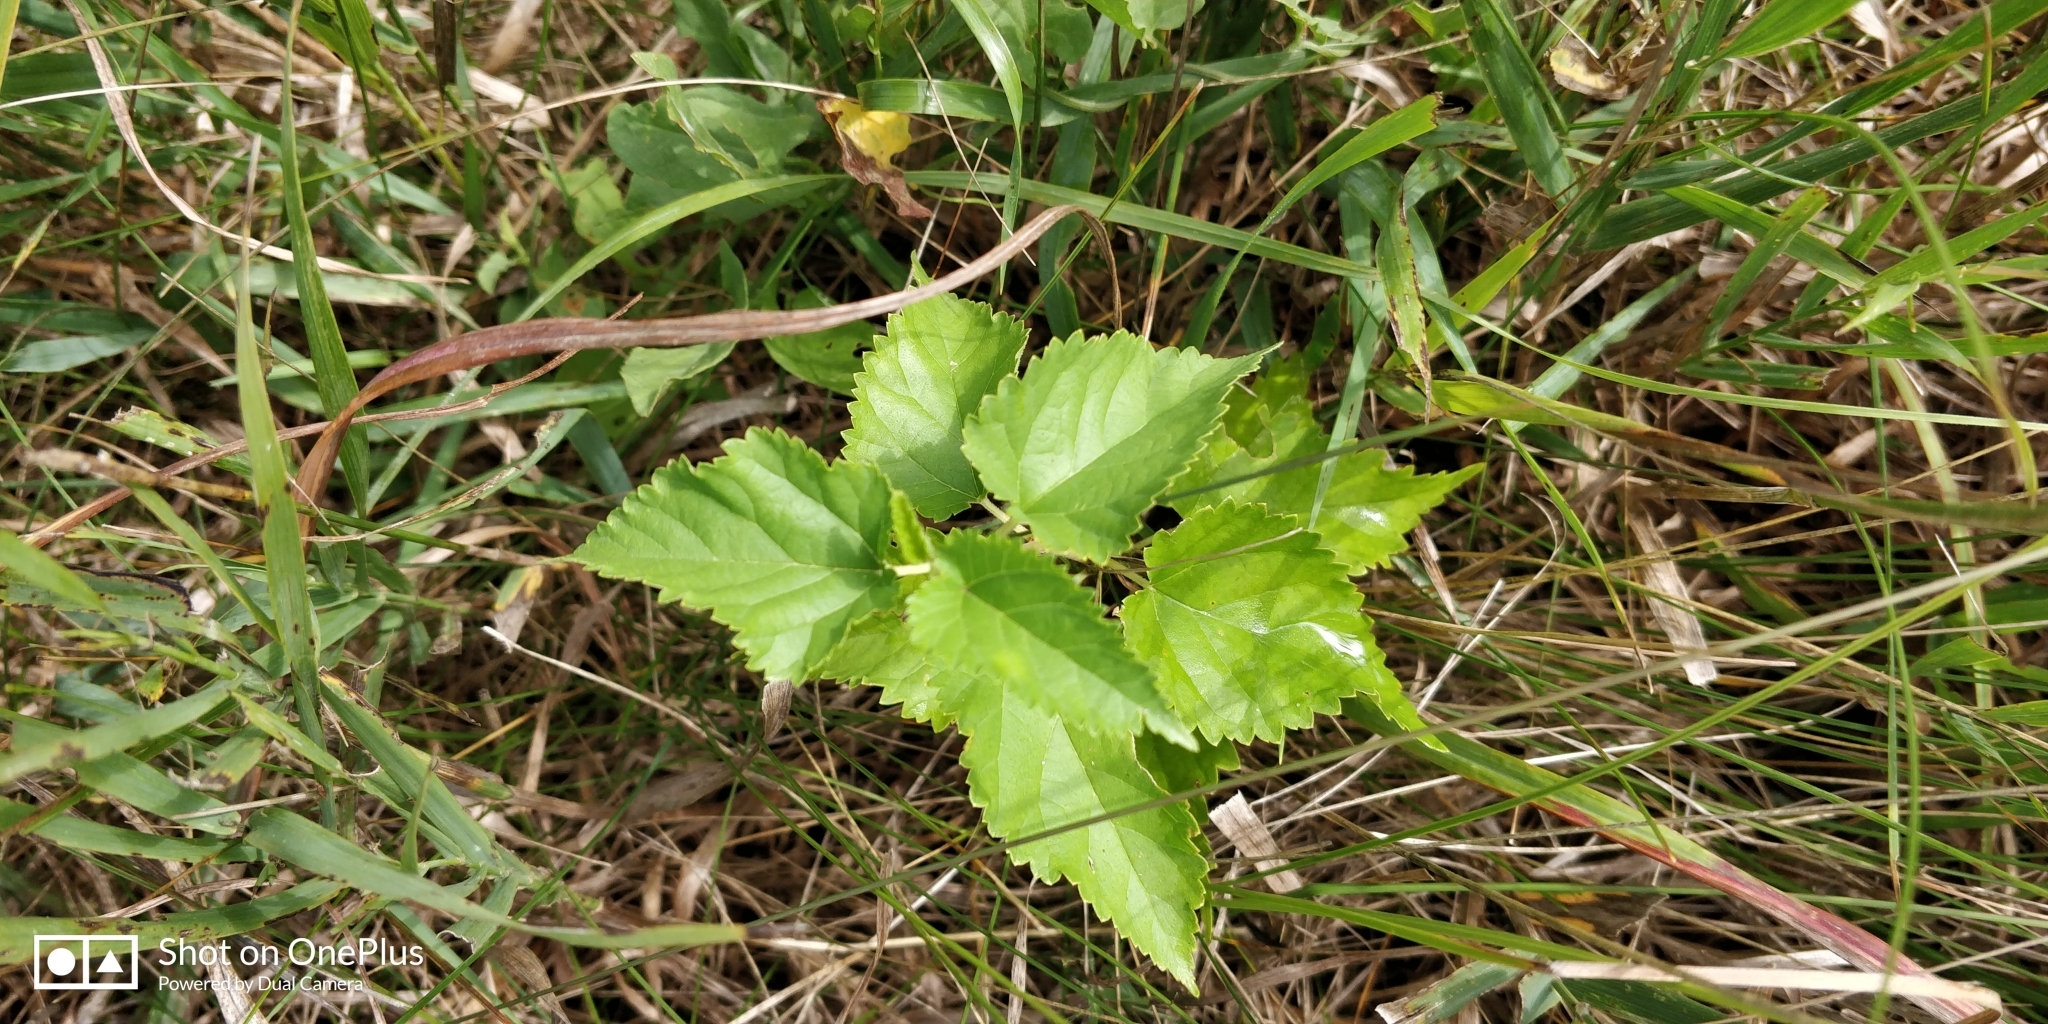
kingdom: Plantae
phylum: Tracheophyta
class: Magnoliopsida
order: Rosales
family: Moraceae
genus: Morus
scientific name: Morus alba
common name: White mulberry
